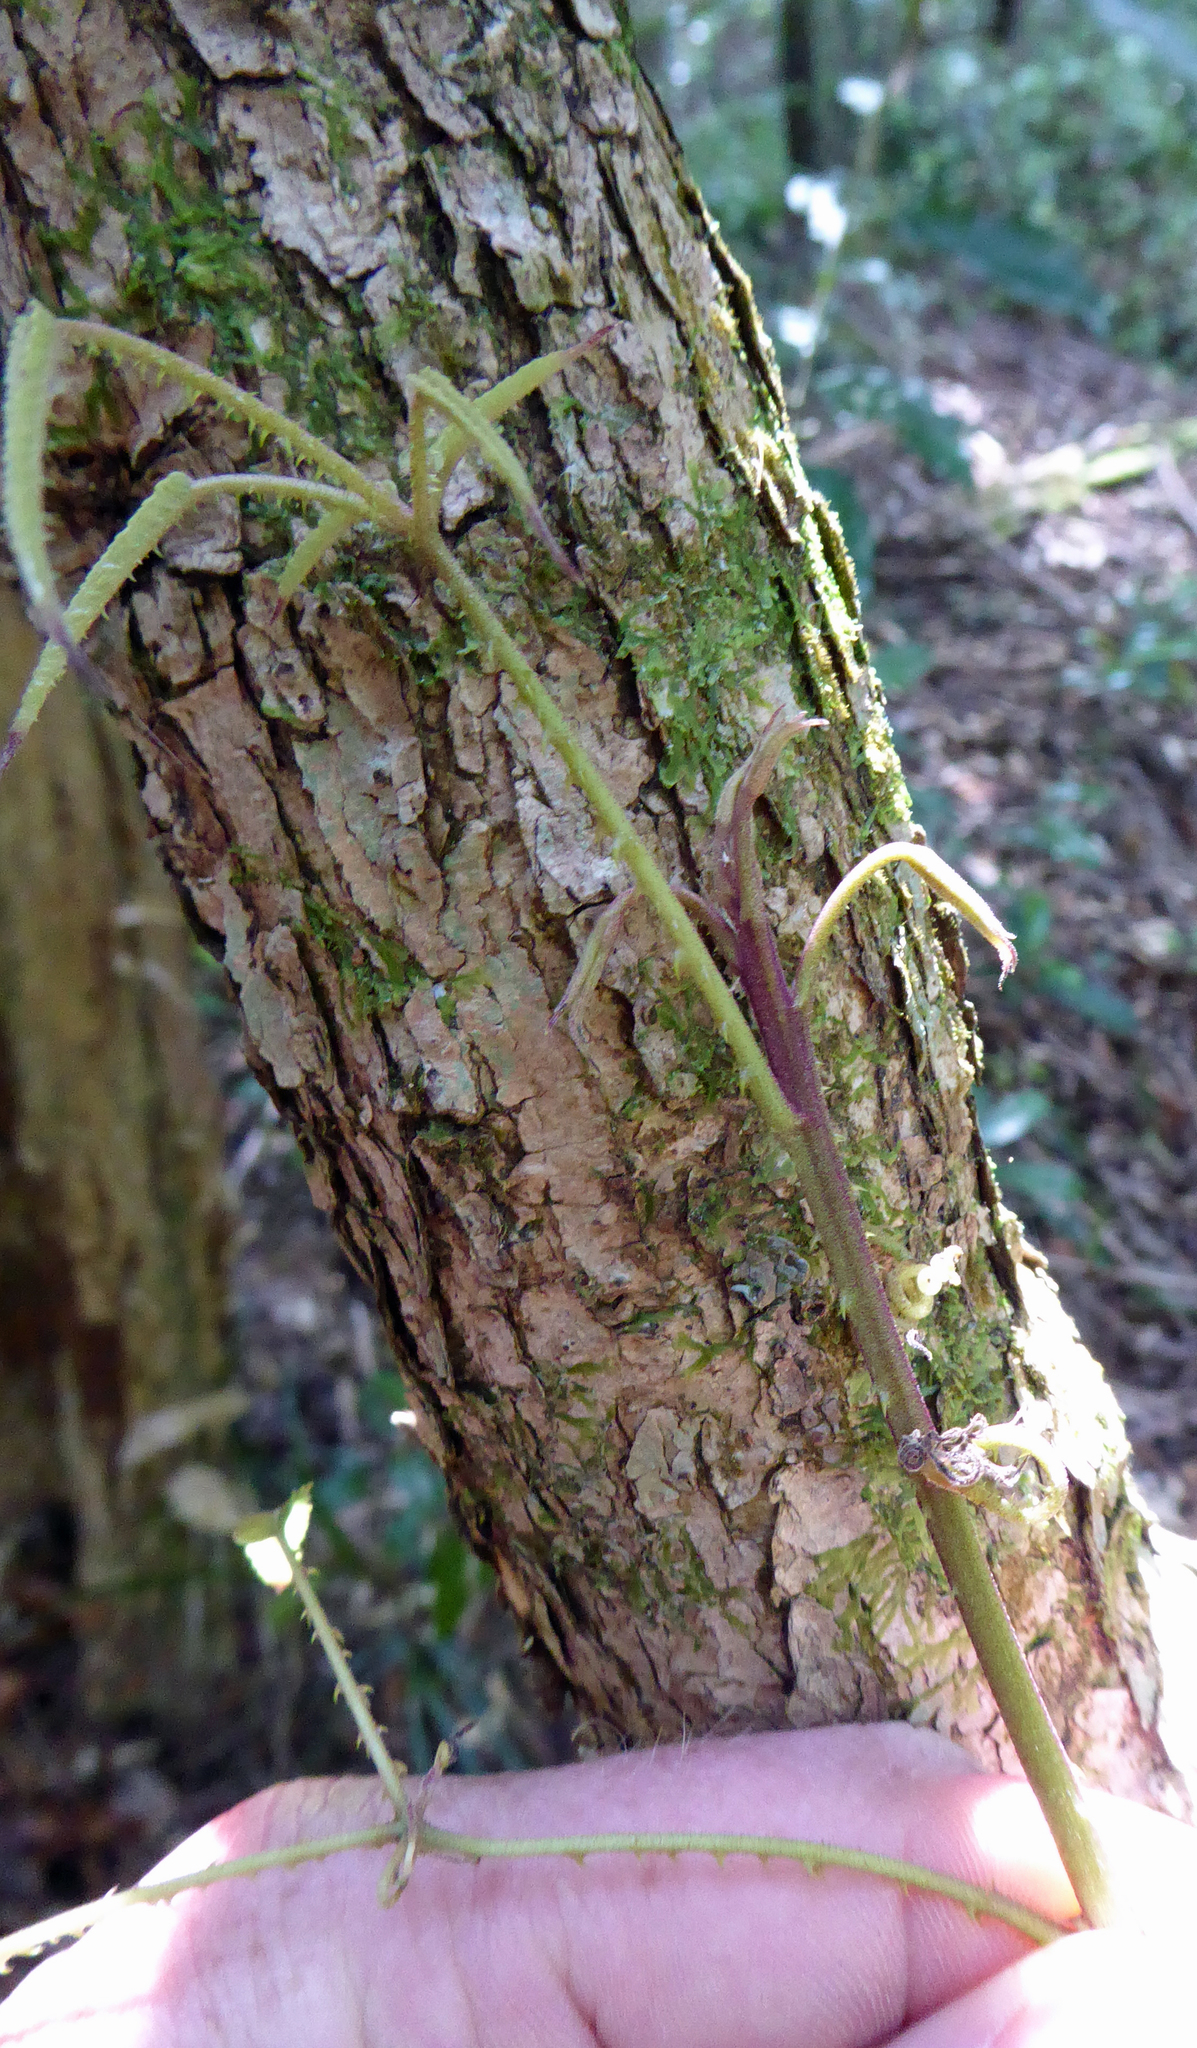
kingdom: Plantae
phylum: Tracheophyta
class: Magnoliopsida
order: Rosales
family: Rosaceae
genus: Rubus
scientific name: Rubus cissoides
